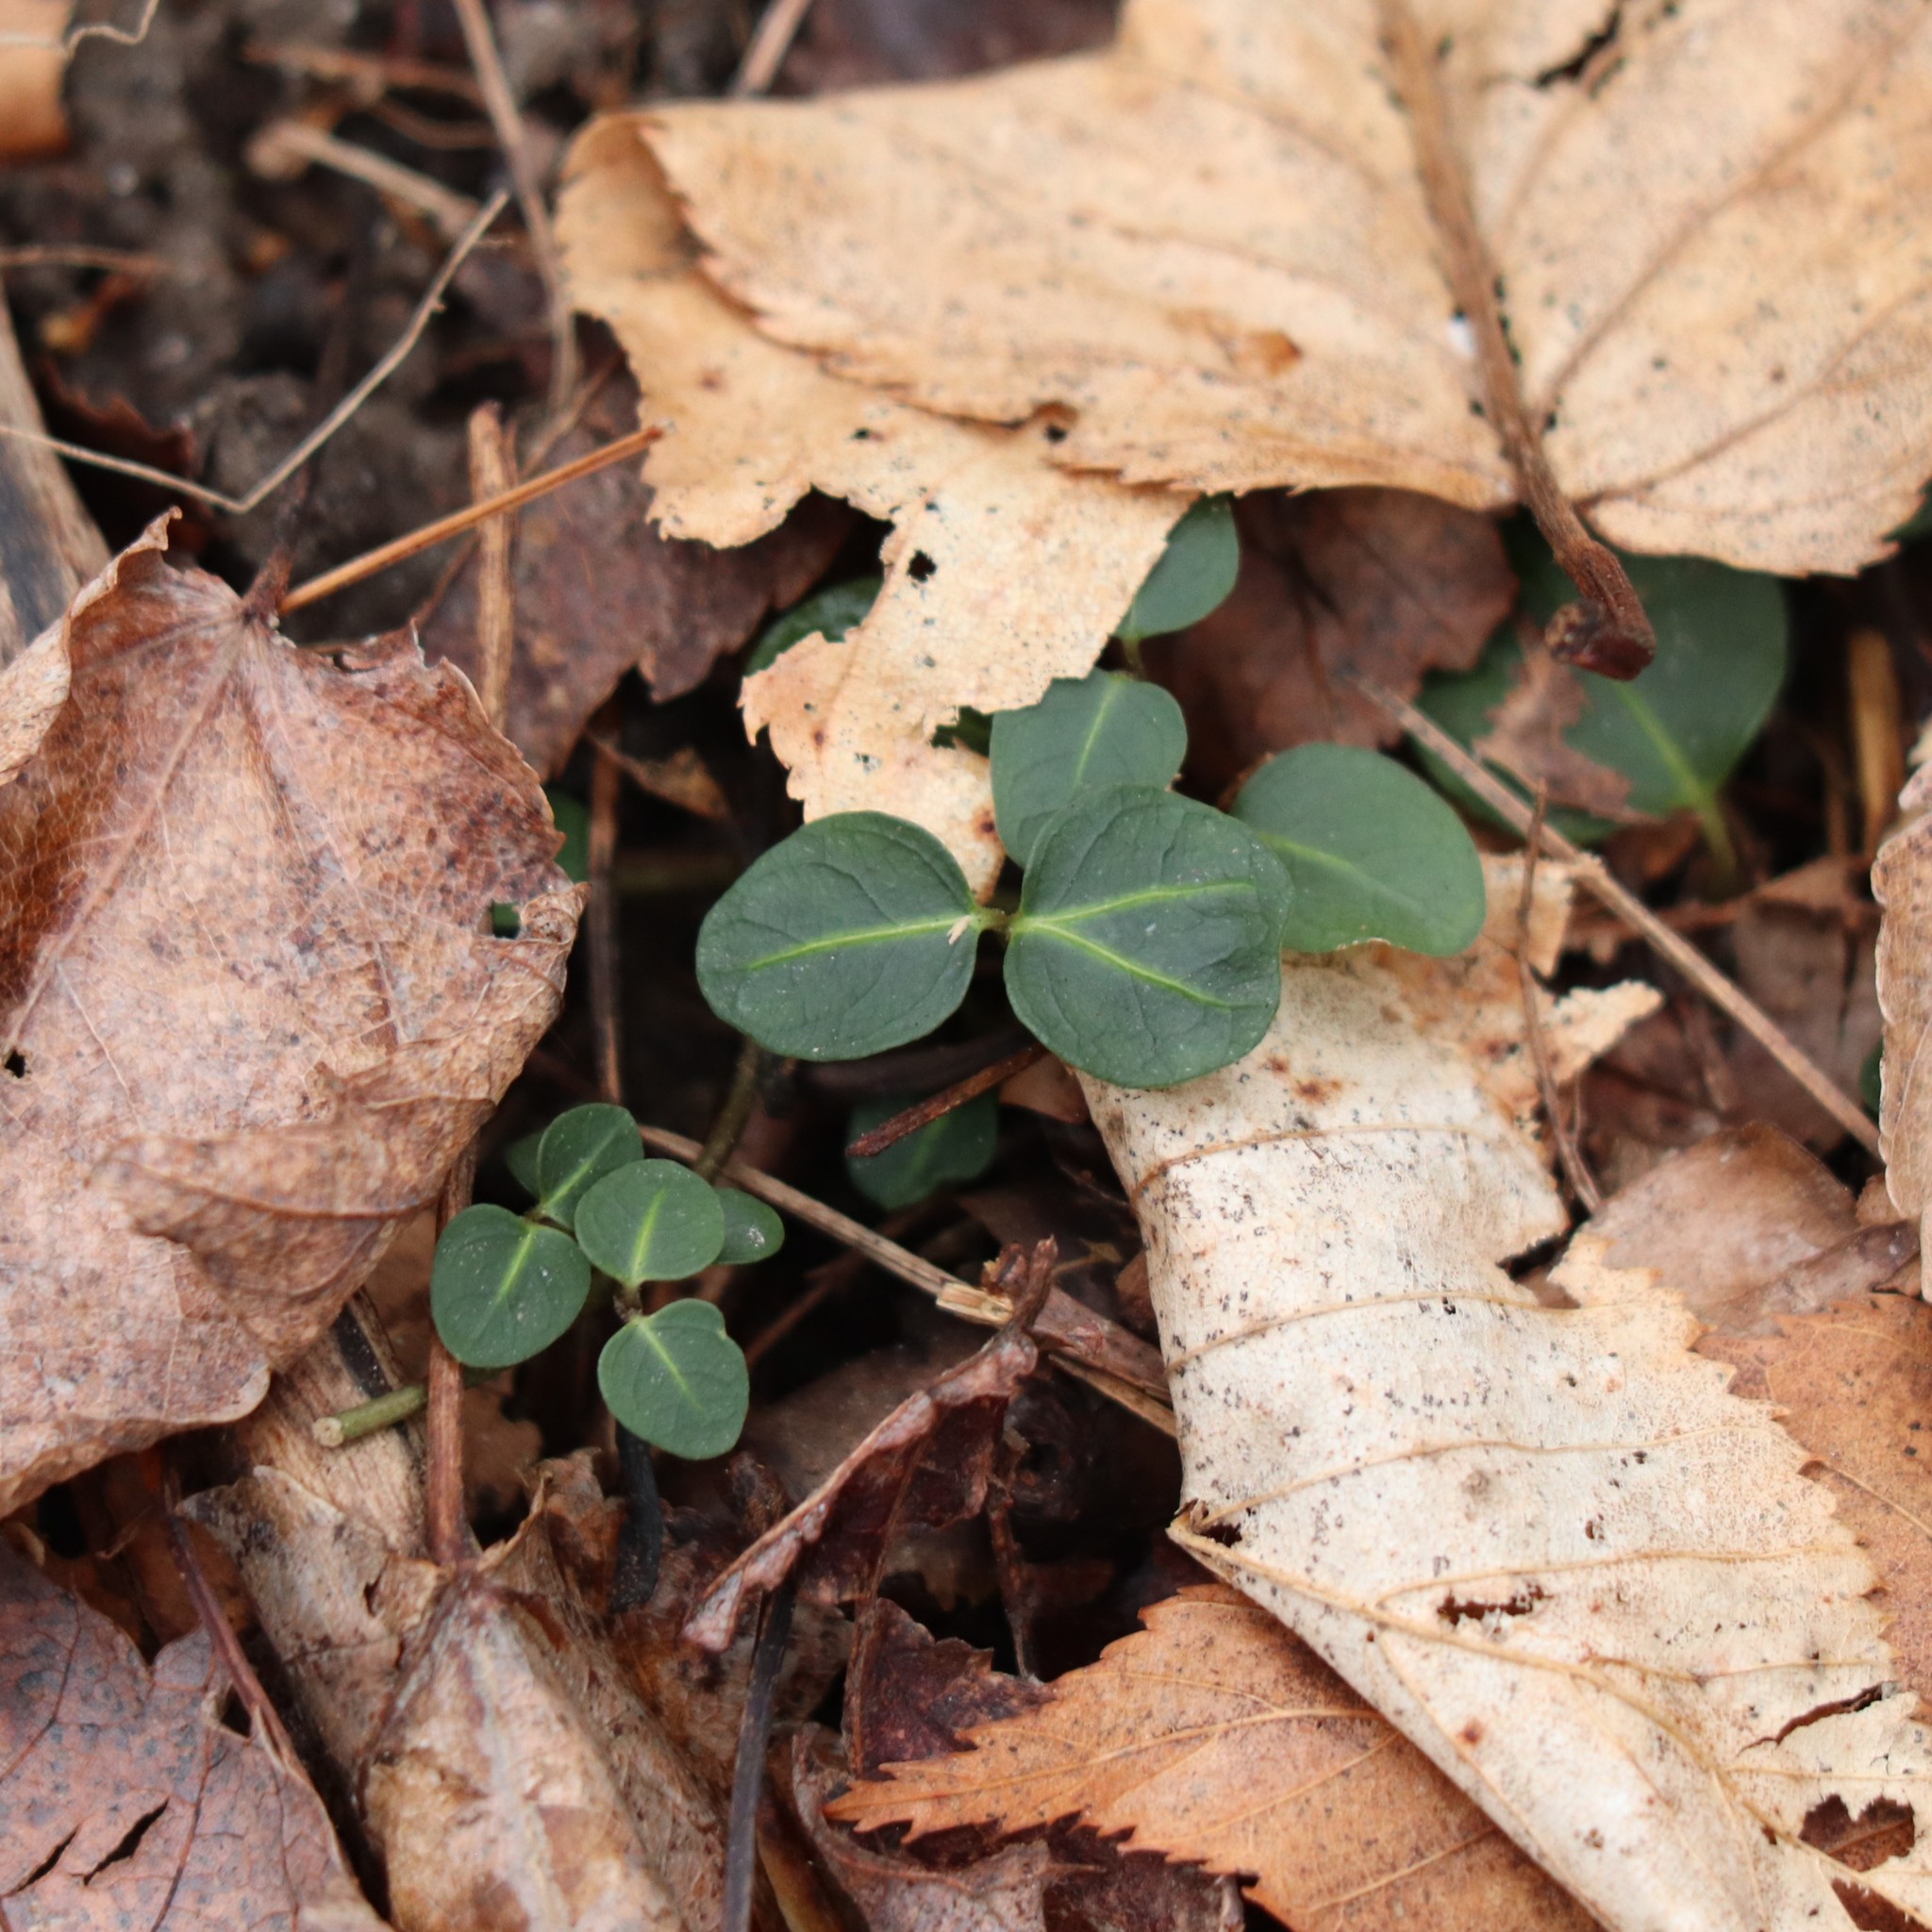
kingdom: Plantae
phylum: Tracheophyta
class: Magnoliopsida
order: Gentianales
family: Rubiaceae
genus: Mitchella
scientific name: Mitchella repens
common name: Partridge-berry
